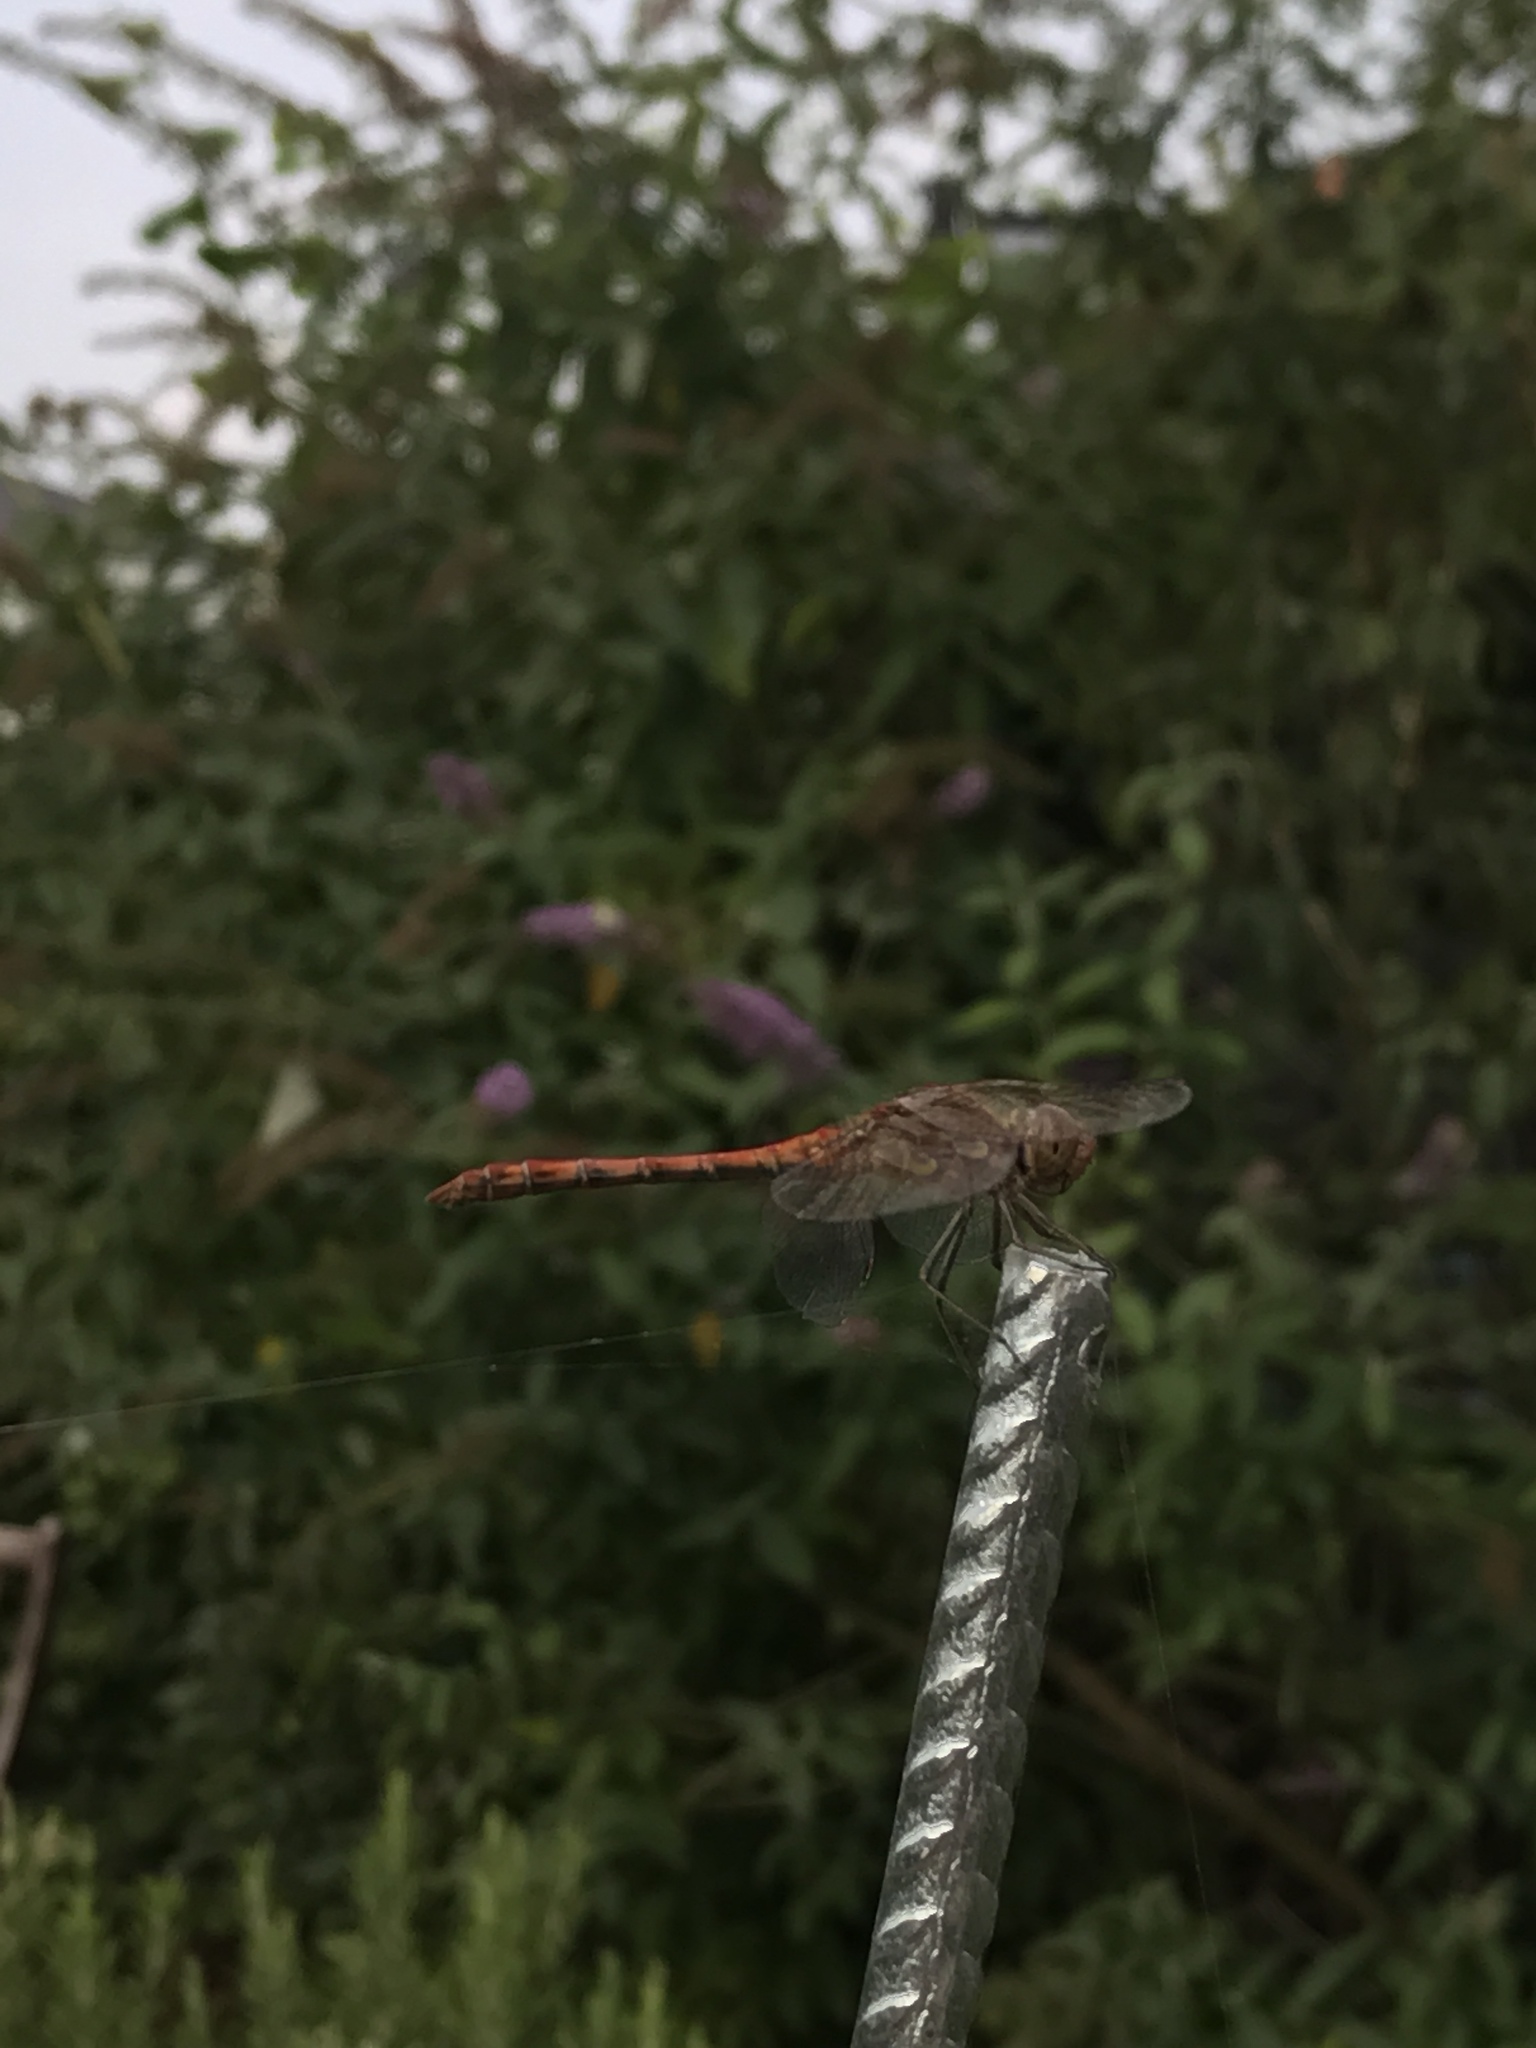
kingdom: Animalia
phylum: Arthropoda
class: Insecta
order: Odonata
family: Libellulidae
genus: Sympetrum
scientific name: Sympetrum striolatum
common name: Common darter
